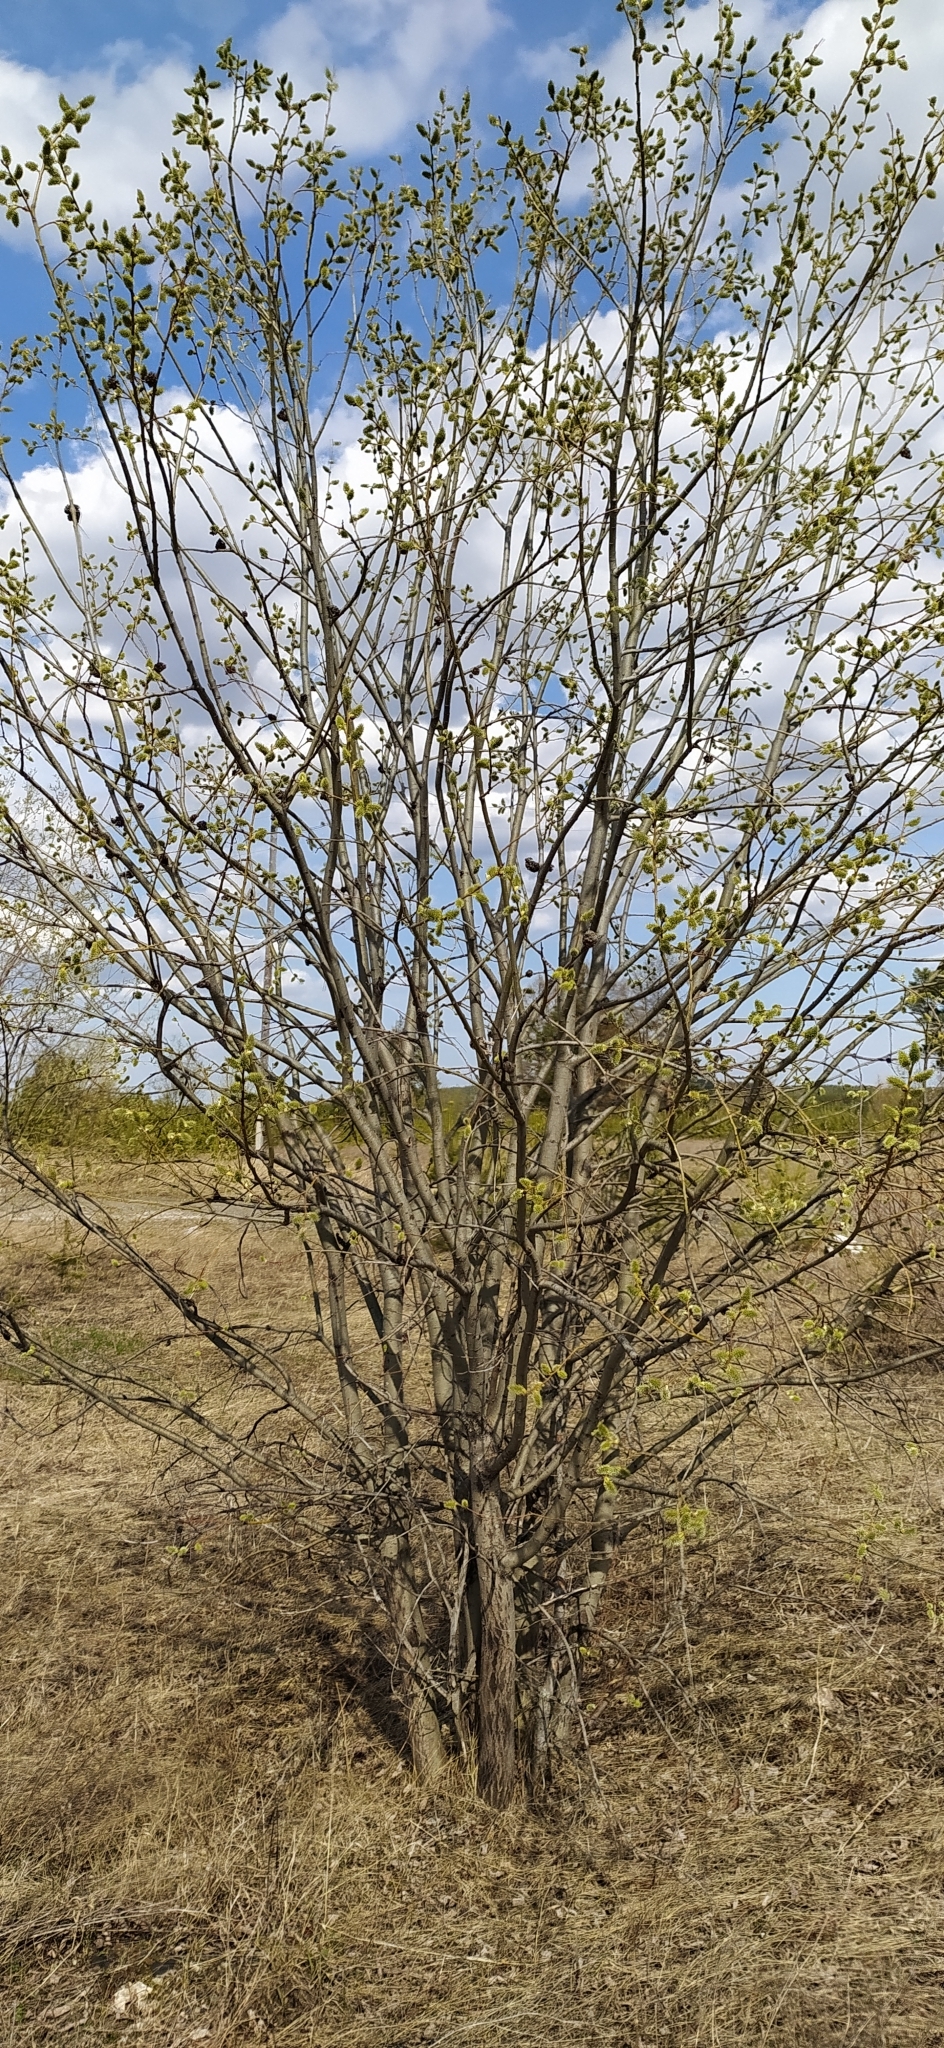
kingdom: Plantae
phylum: Tracheophyta
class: Magnoliopsida
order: Malpighiales
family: Salicaceae
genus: Salix
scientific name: Salix caprea
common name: Goat willow
